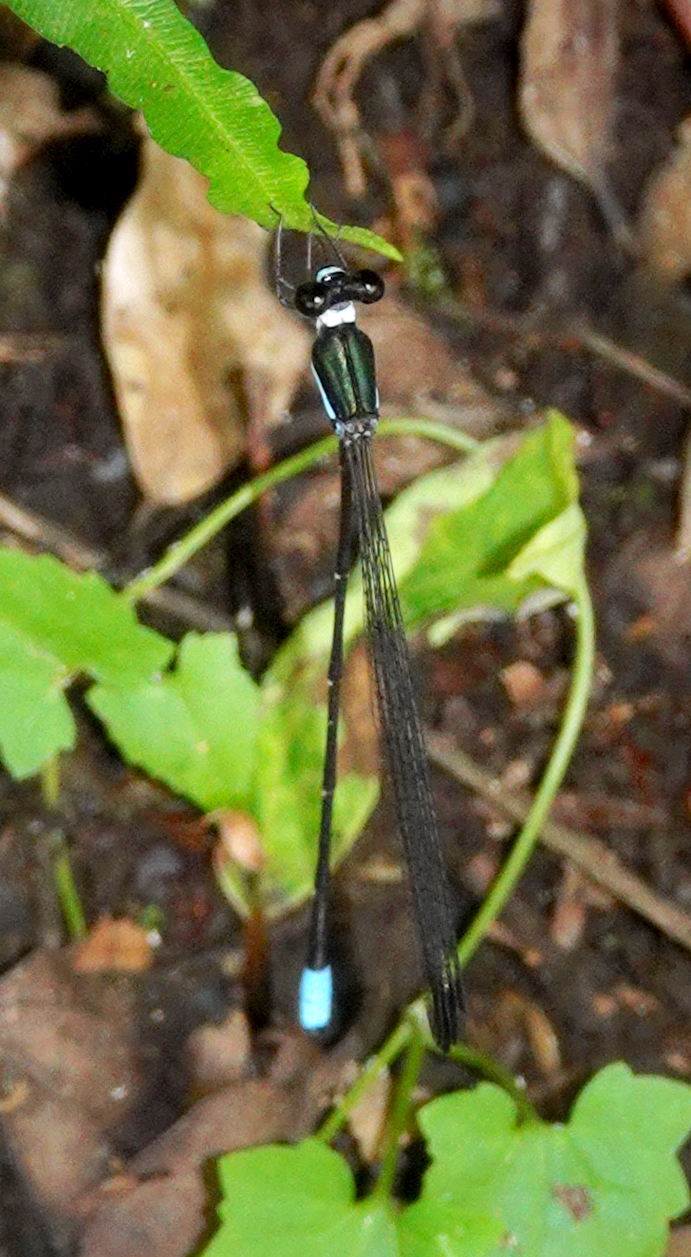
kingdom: Animalia
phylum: Arthropoda
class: Insecta
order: Odonata
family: Platystictidae
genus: Platysticta
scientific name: Platysticta apicalis
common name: Dark forestdamsel
